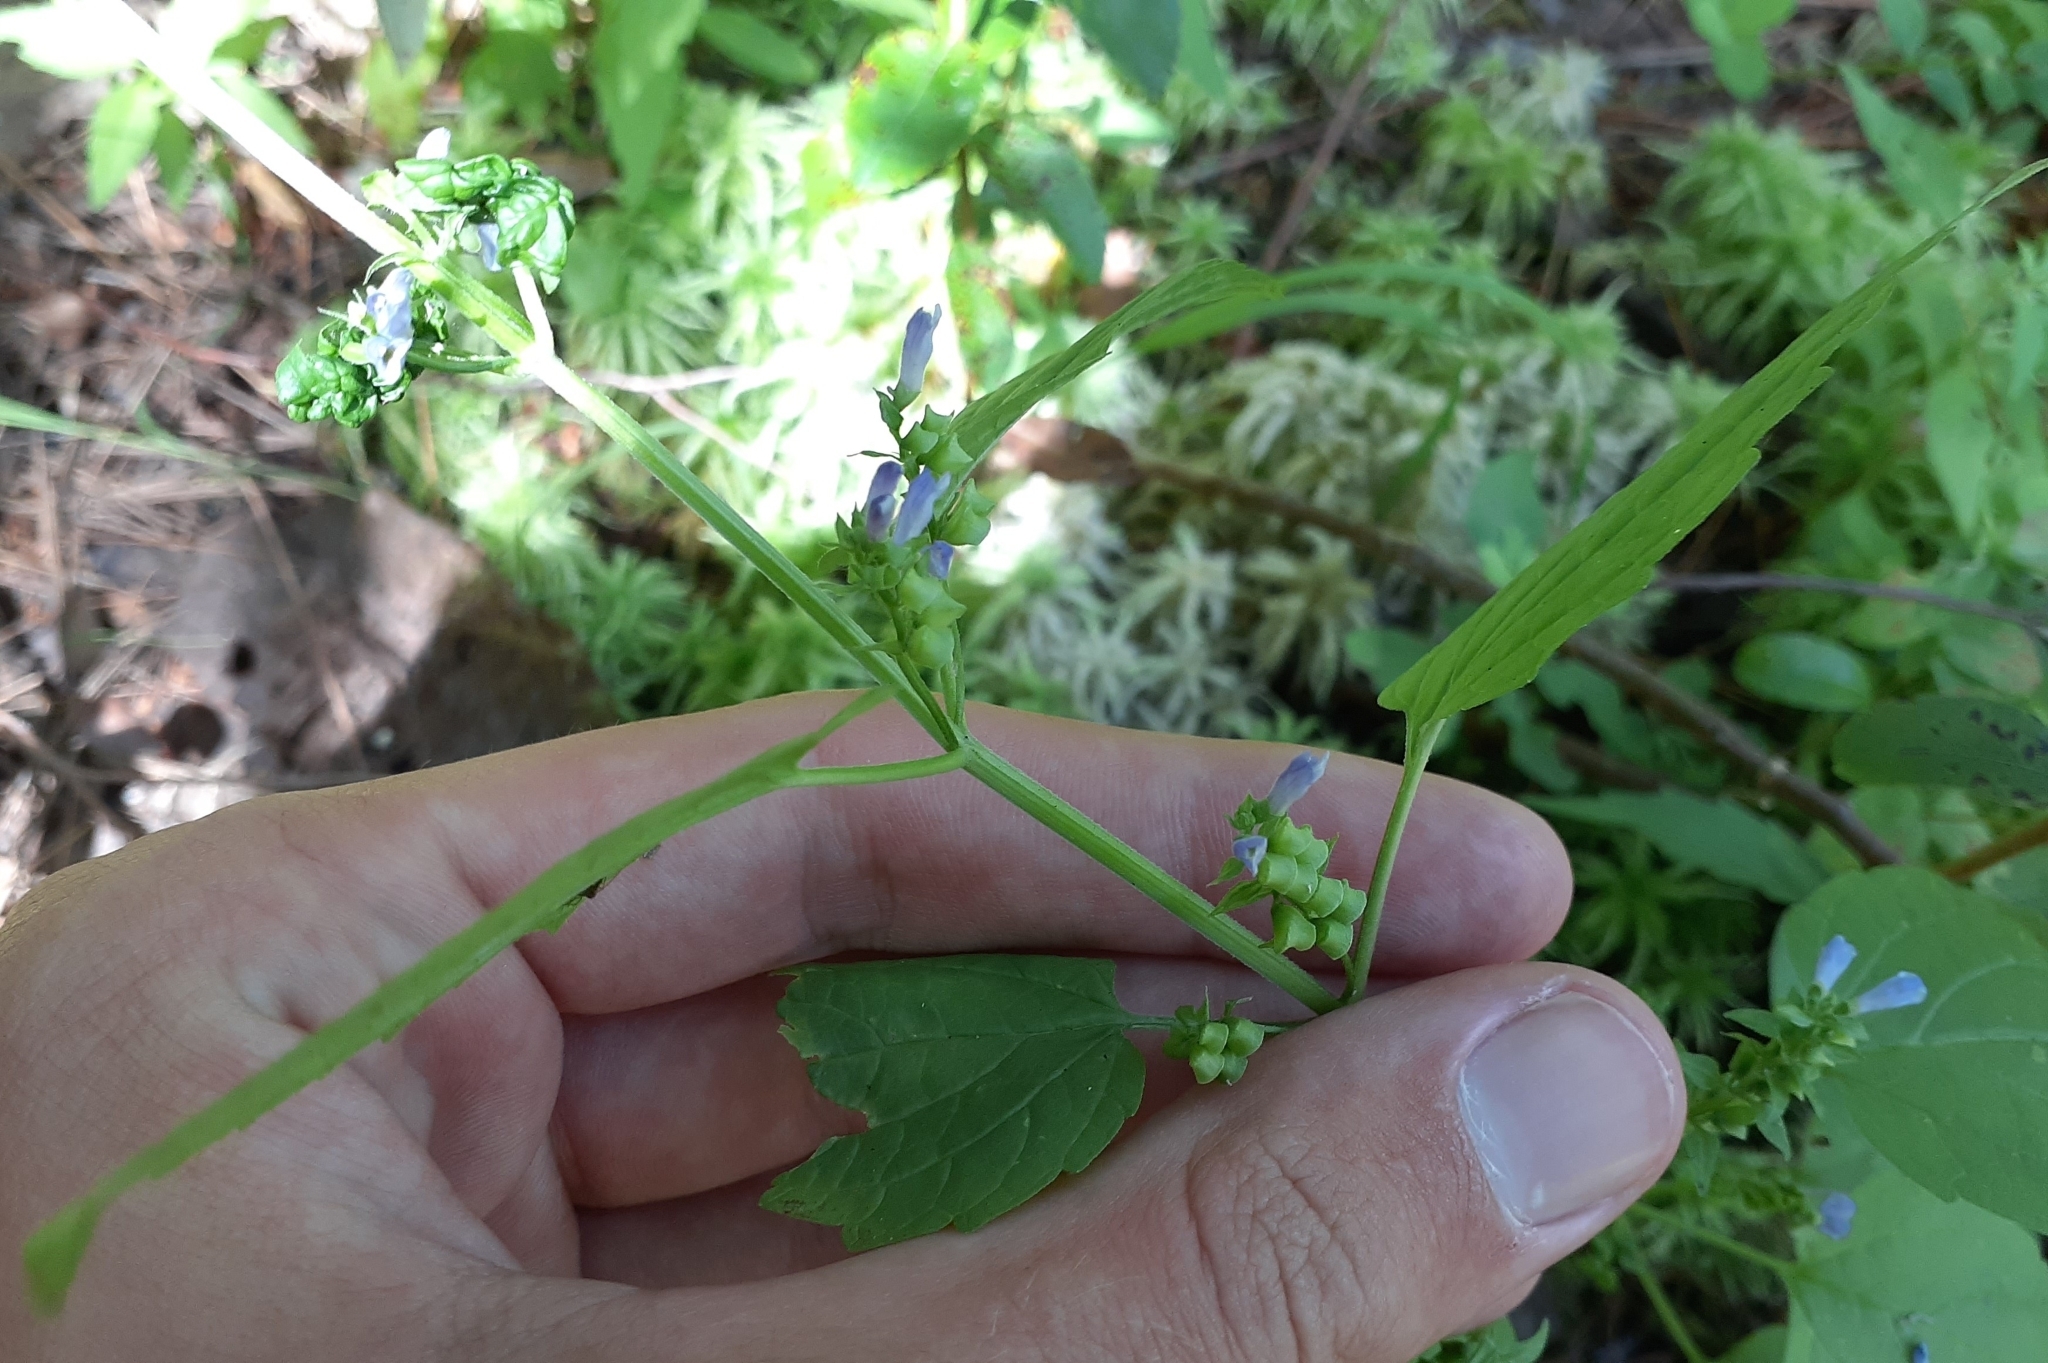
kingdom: Plantae
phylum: Tracheophyta
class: Magnoliopsida
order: Lamiales
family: Lamiaceae
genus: Scutellaria
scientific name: Scutellaria lateriflora
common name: Blue skullcap
